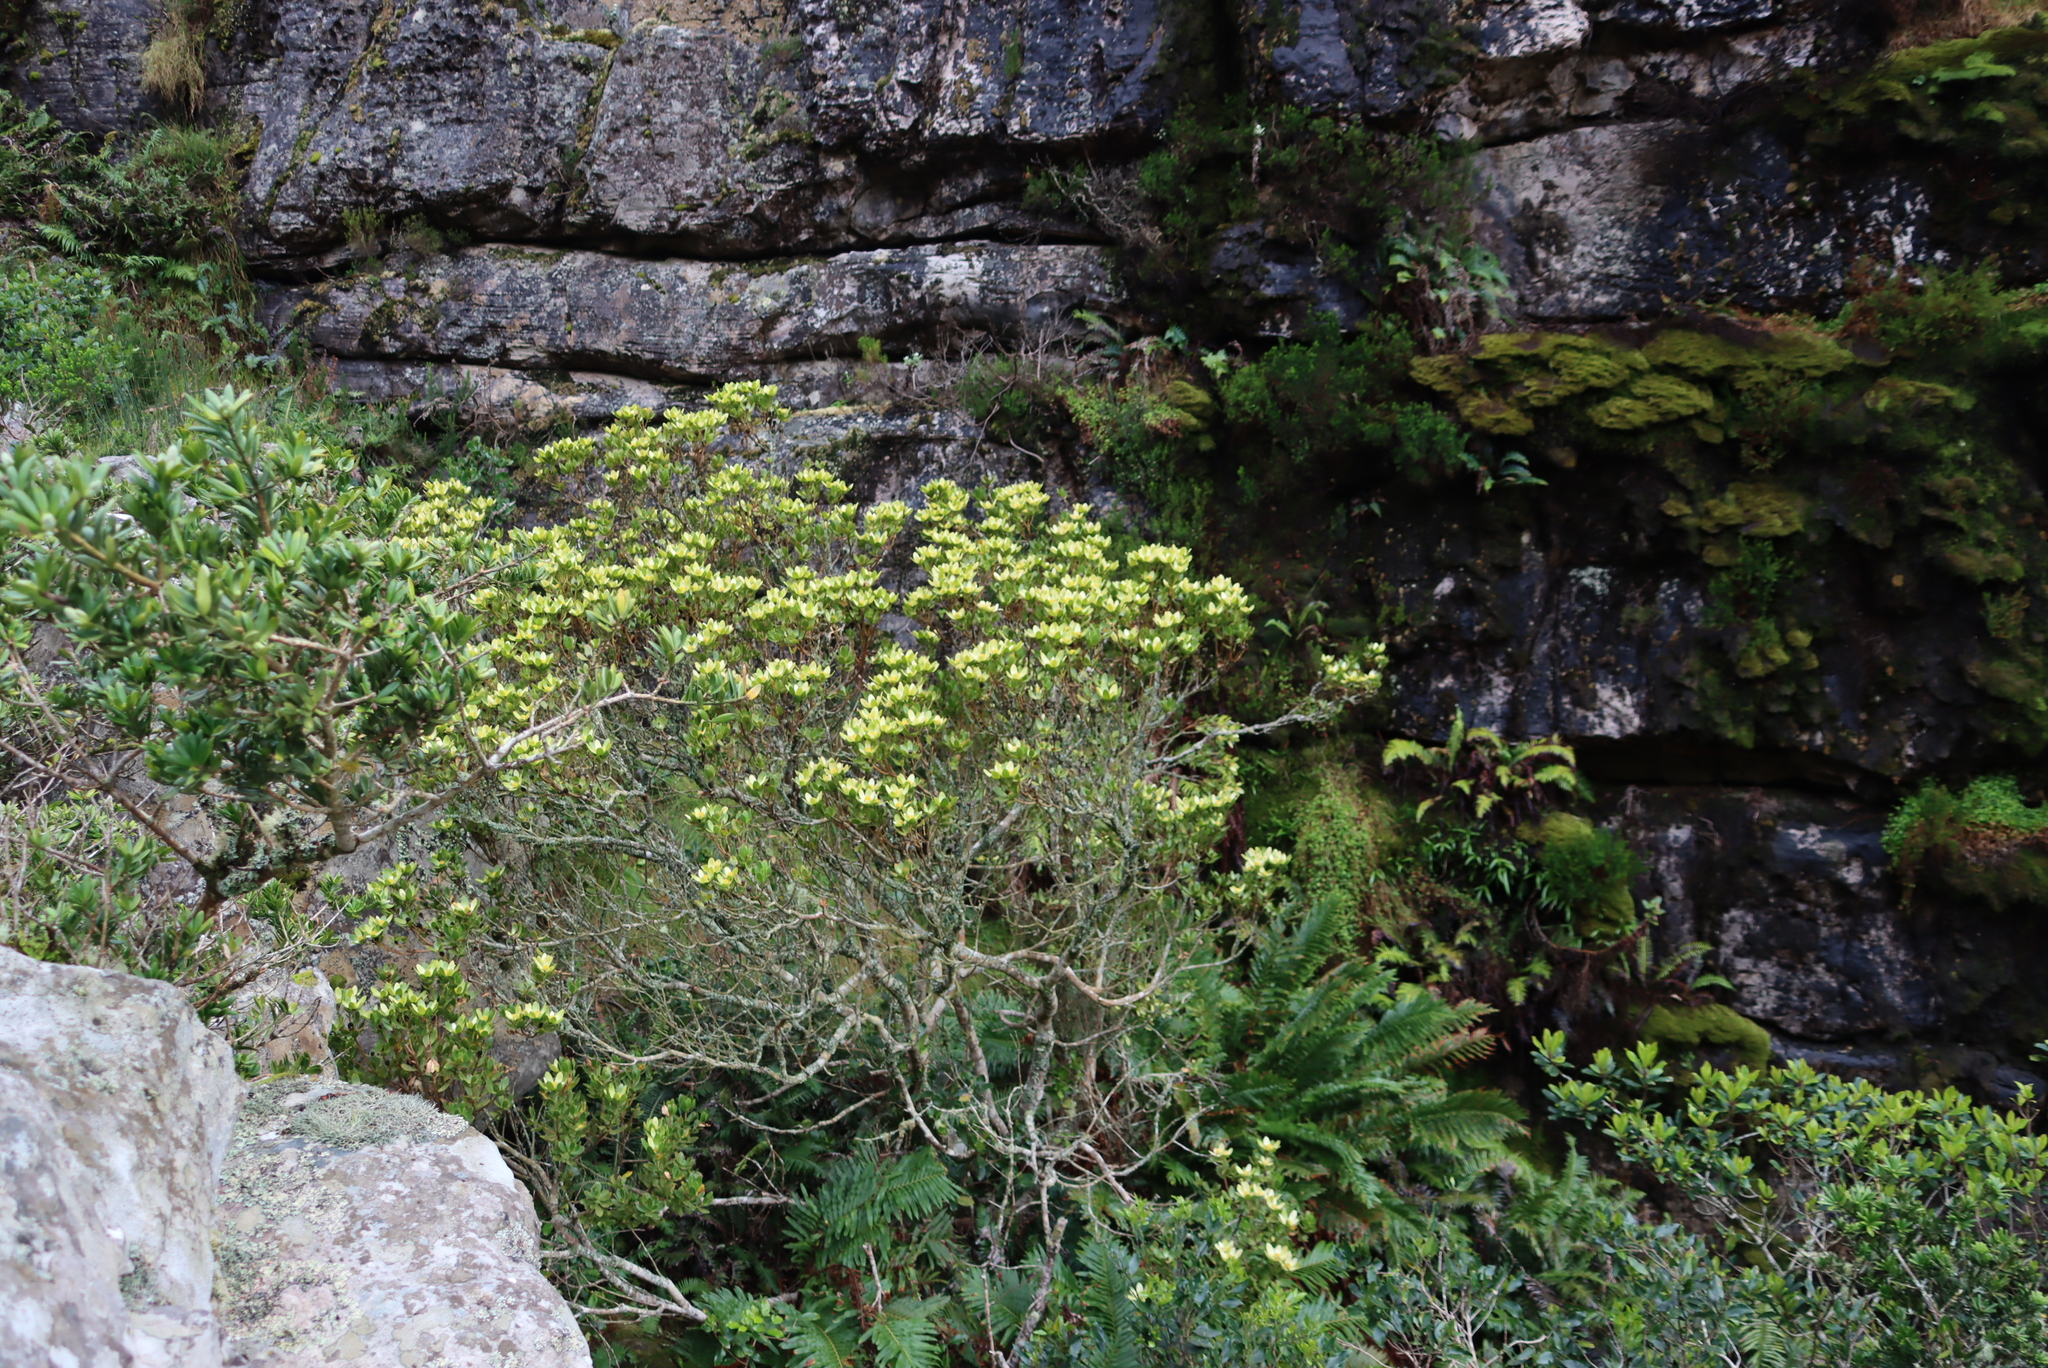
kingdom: Plantae
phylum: Tracheophyta
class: Magnoliopsida
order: Proteales
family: Proteaceae
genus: Leucadendron
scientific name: Leucadendron strobilinum
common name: Mountain rose
